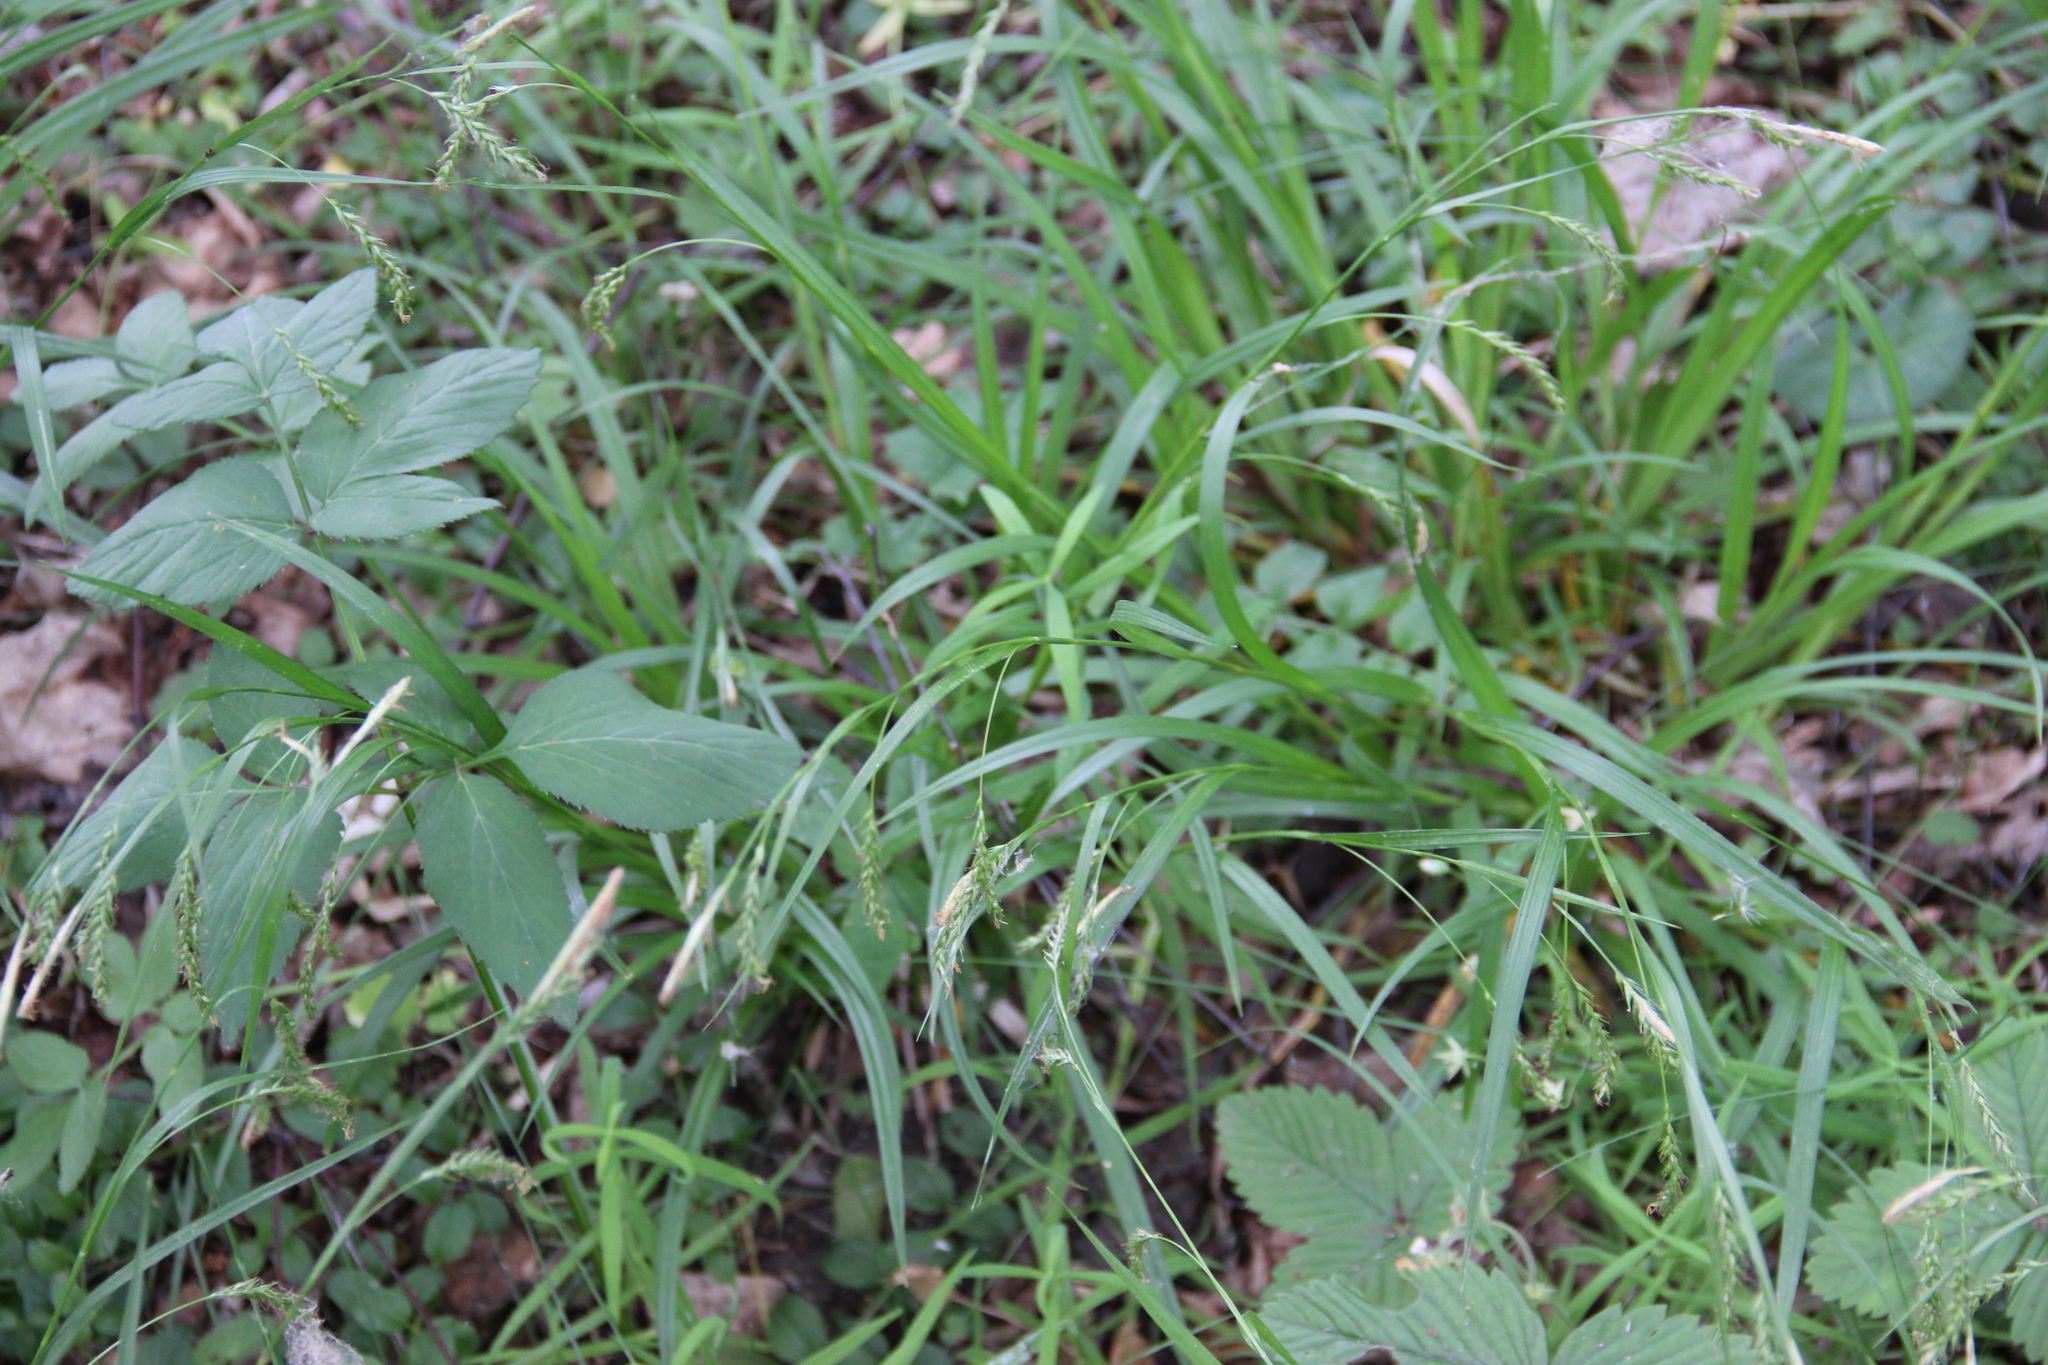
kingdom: Plantae
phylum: Tracheophyta
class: Liliopsida
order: Poales
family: Cyperaceae
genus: Carex
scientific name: Carex sylvatica
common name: Wood-sedge
